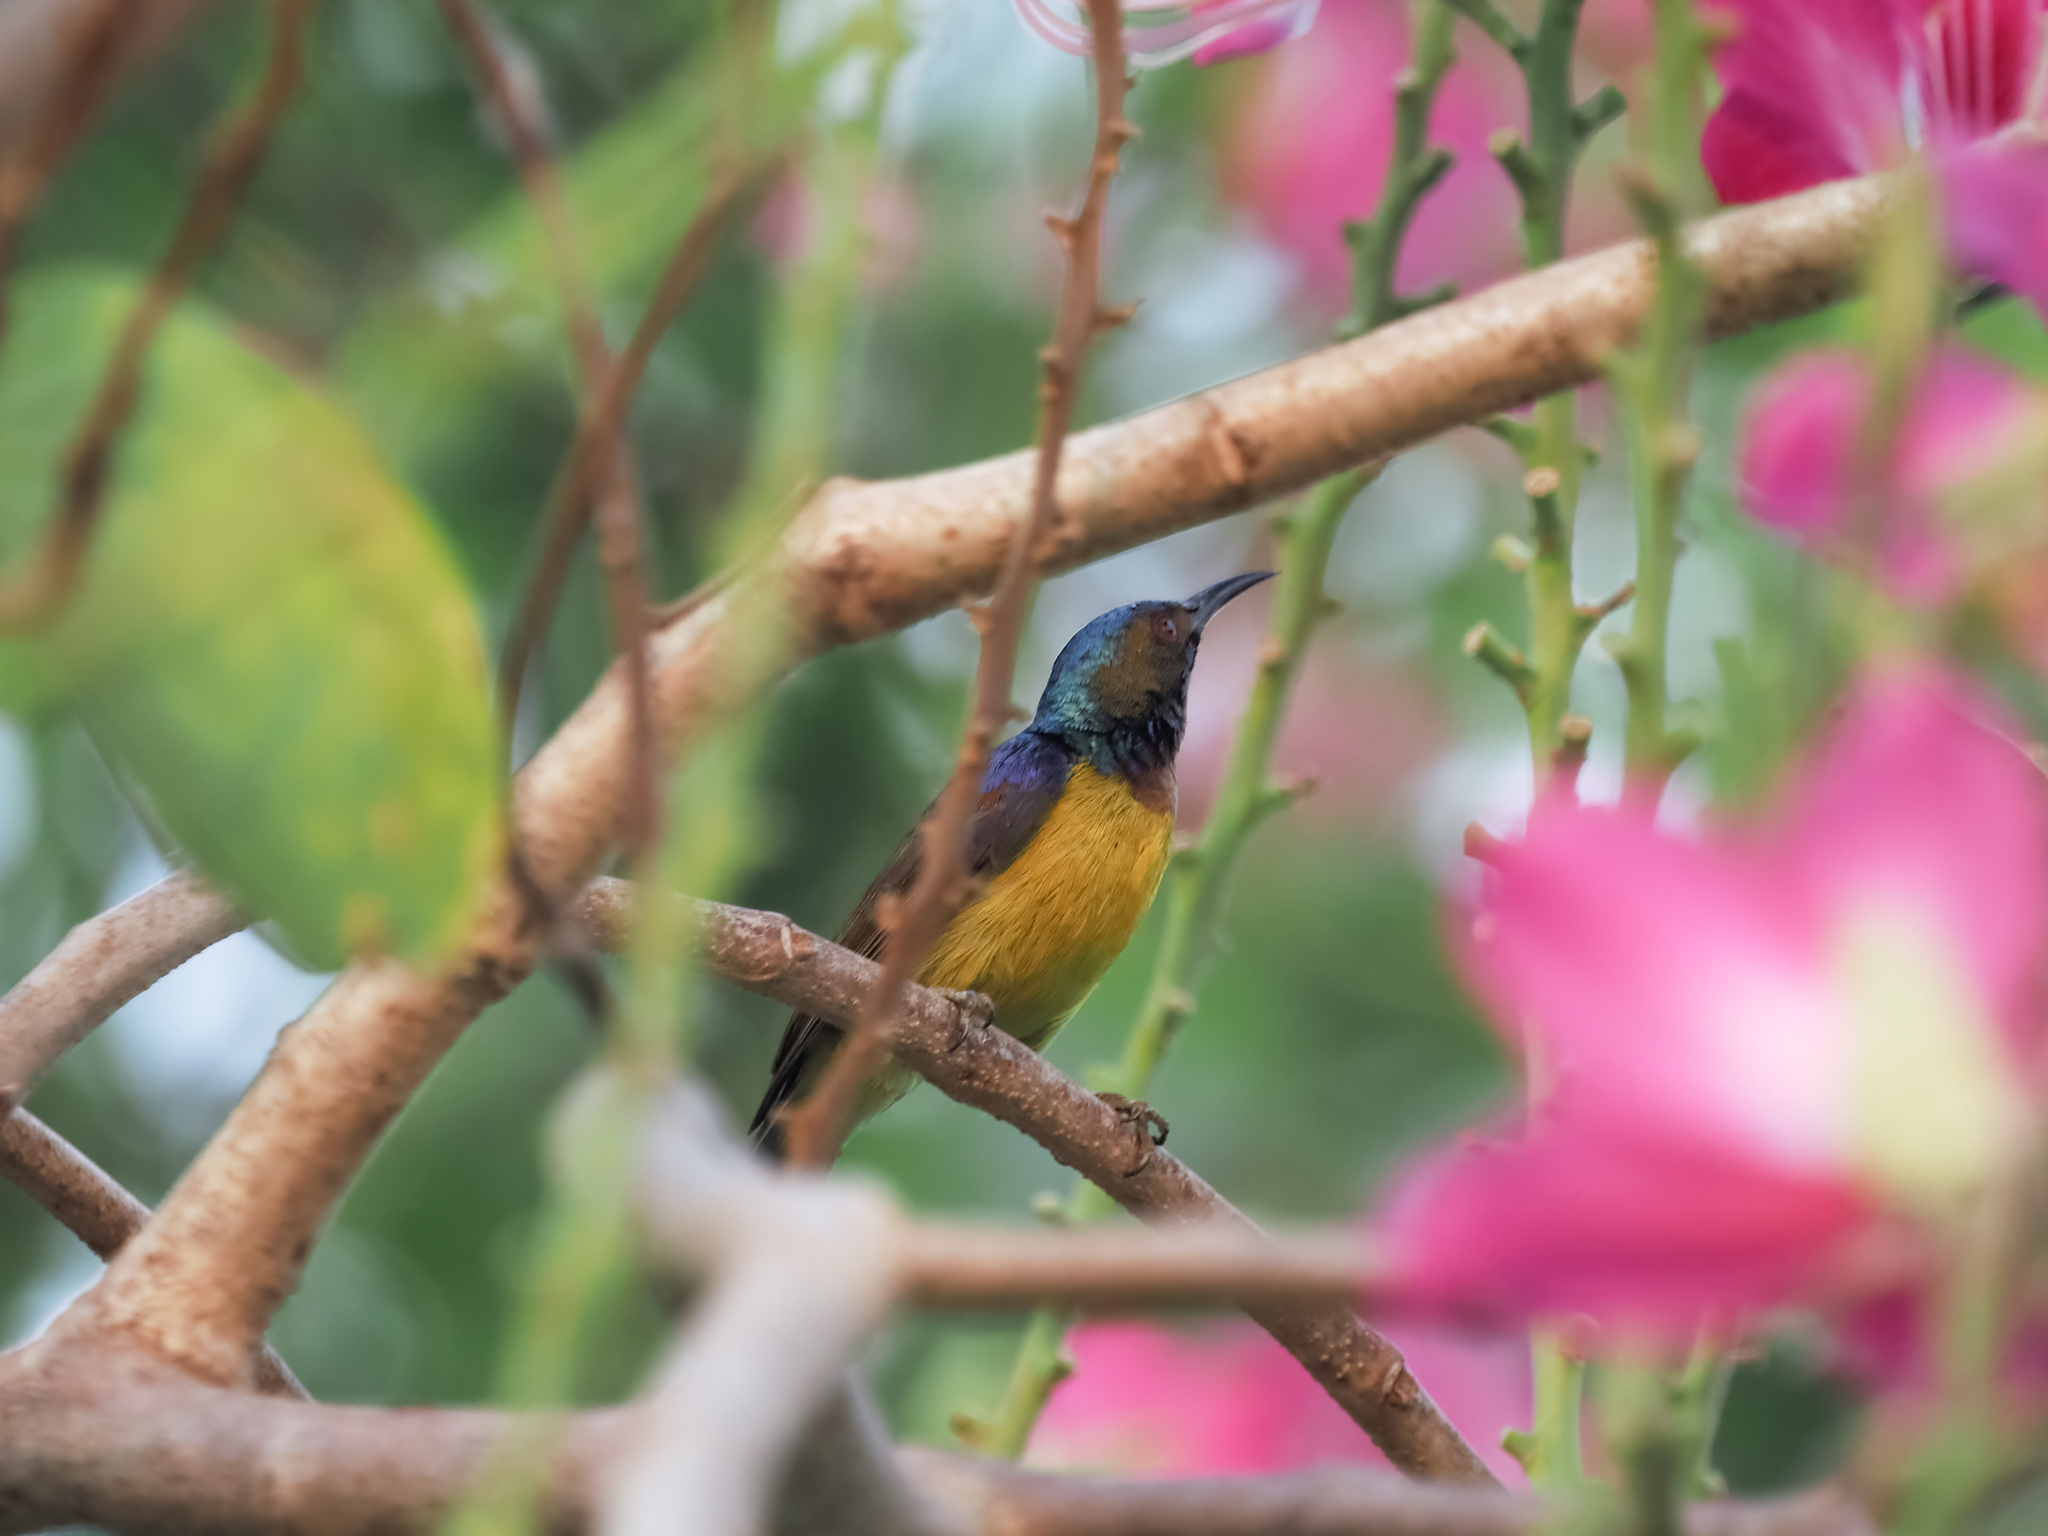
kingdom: Animalia
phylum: Chordata
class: Aves
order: Passeriformes
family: Nectariniidae
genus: Anthreptes
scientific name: Anthreptes malacensis
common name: Brown-throated sunbird
